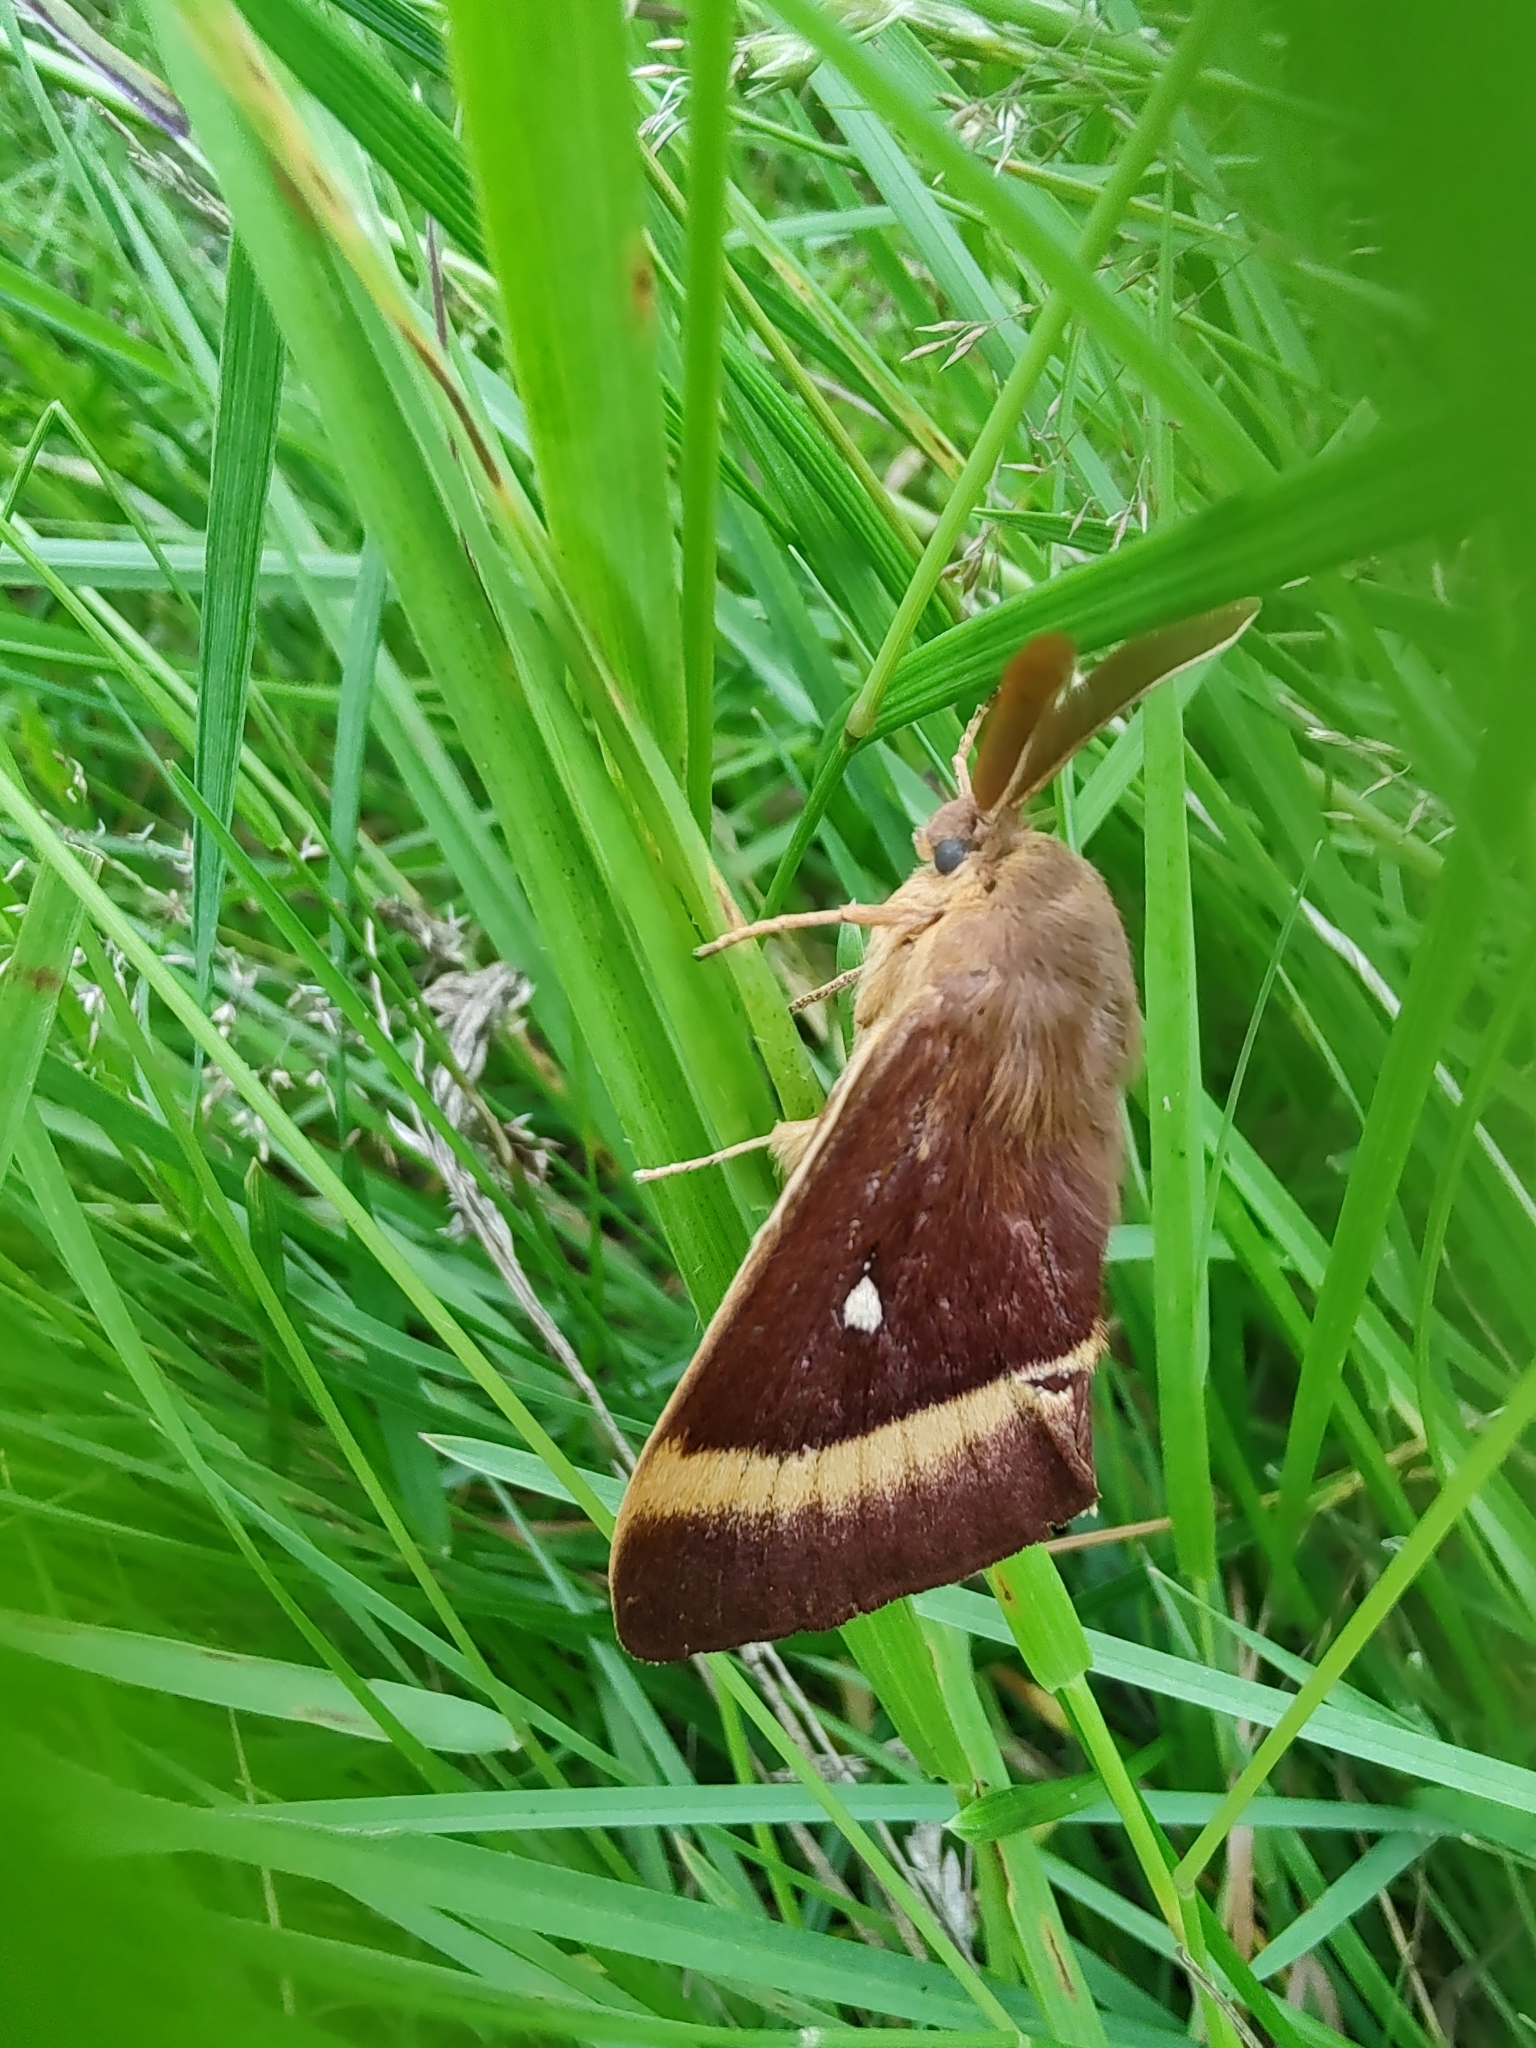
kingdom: Animalia
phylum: Arthropoda
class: Insecta
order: Lepidoptera
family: Lasiocampidae
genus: Lasiocampa
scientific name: Lasiocampa quercus
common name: Oak eggar
